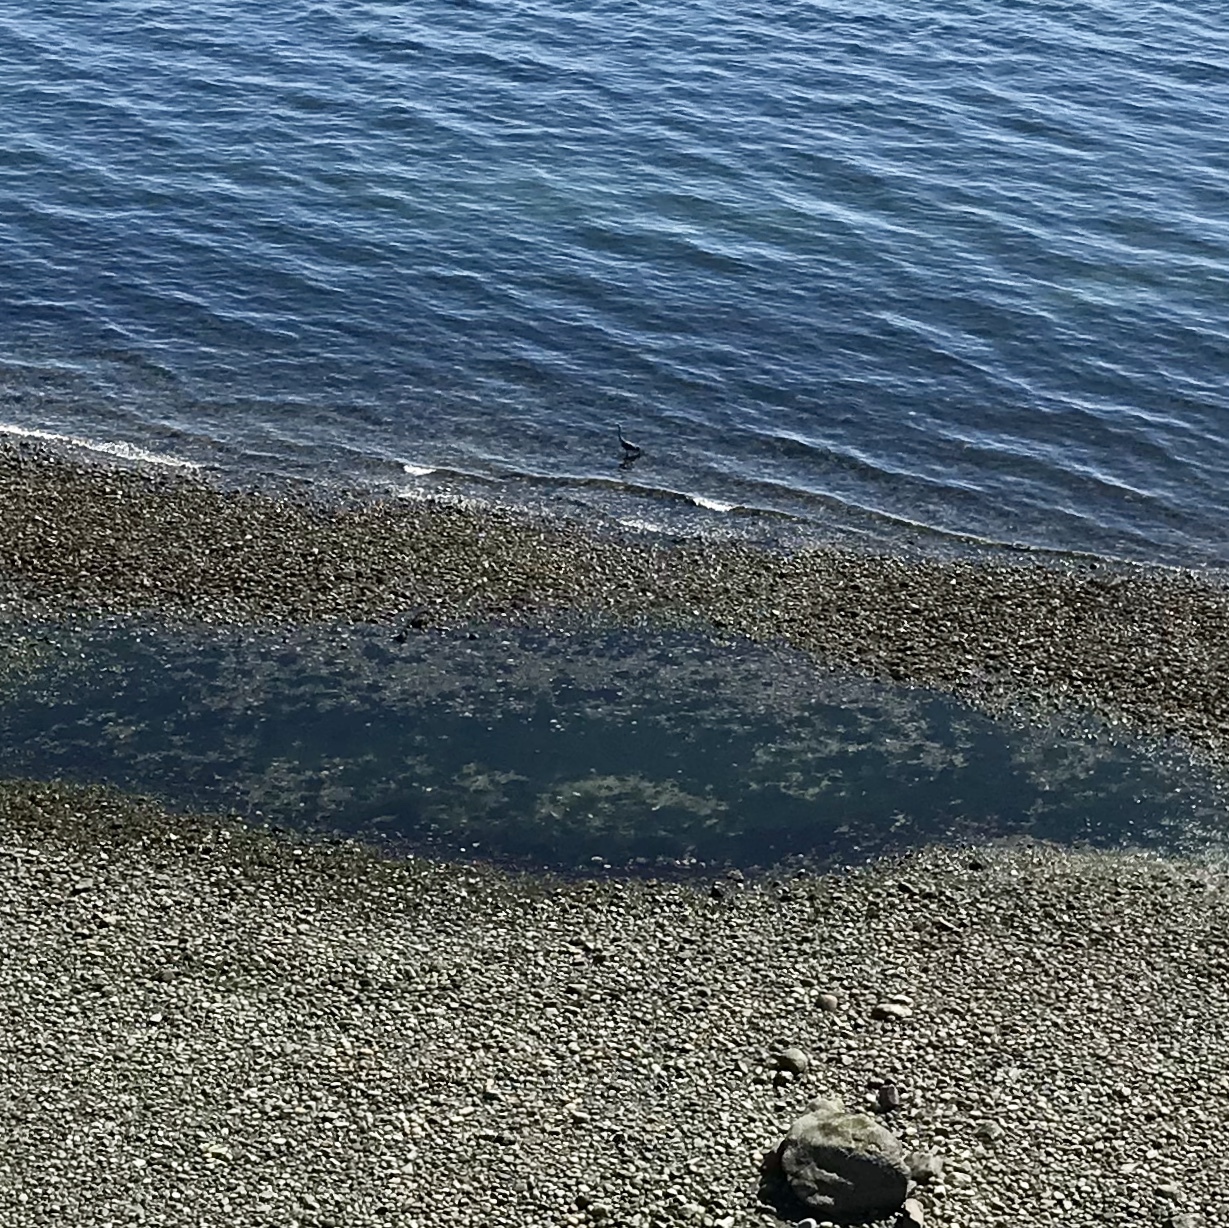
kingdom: Animalia
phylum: Chordata
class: Aves
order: Pelecaniformes
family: Ardeidae
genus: Ardea
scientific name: Ardea herodias
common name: Great blue heron
